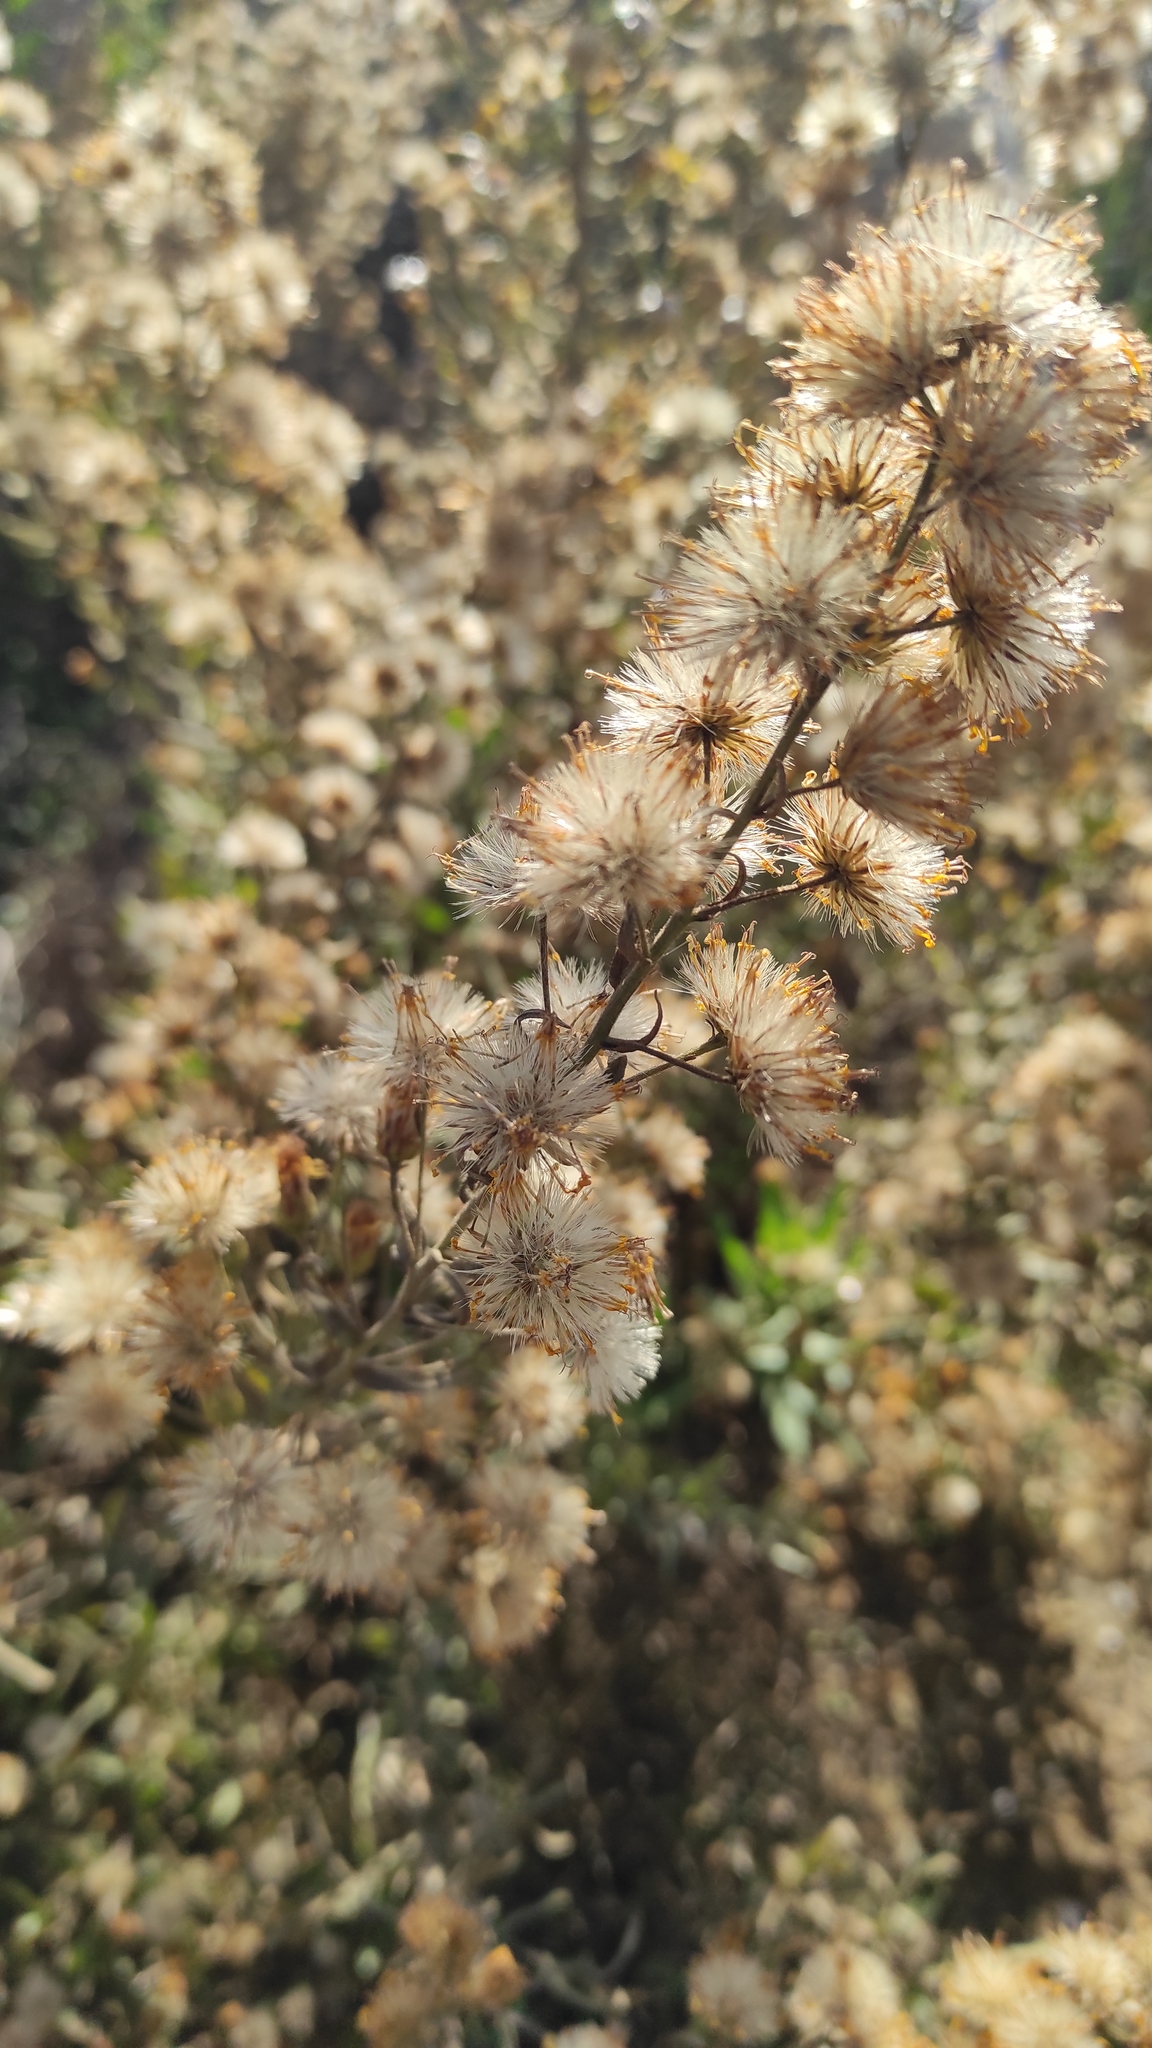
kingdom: Plantae
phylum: Tracheophyta
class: Magnoliopsida
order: Asterales
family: Asteraceae
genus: Dittrichia
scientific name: Dittrichia viscosa
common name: Woody fleabane
